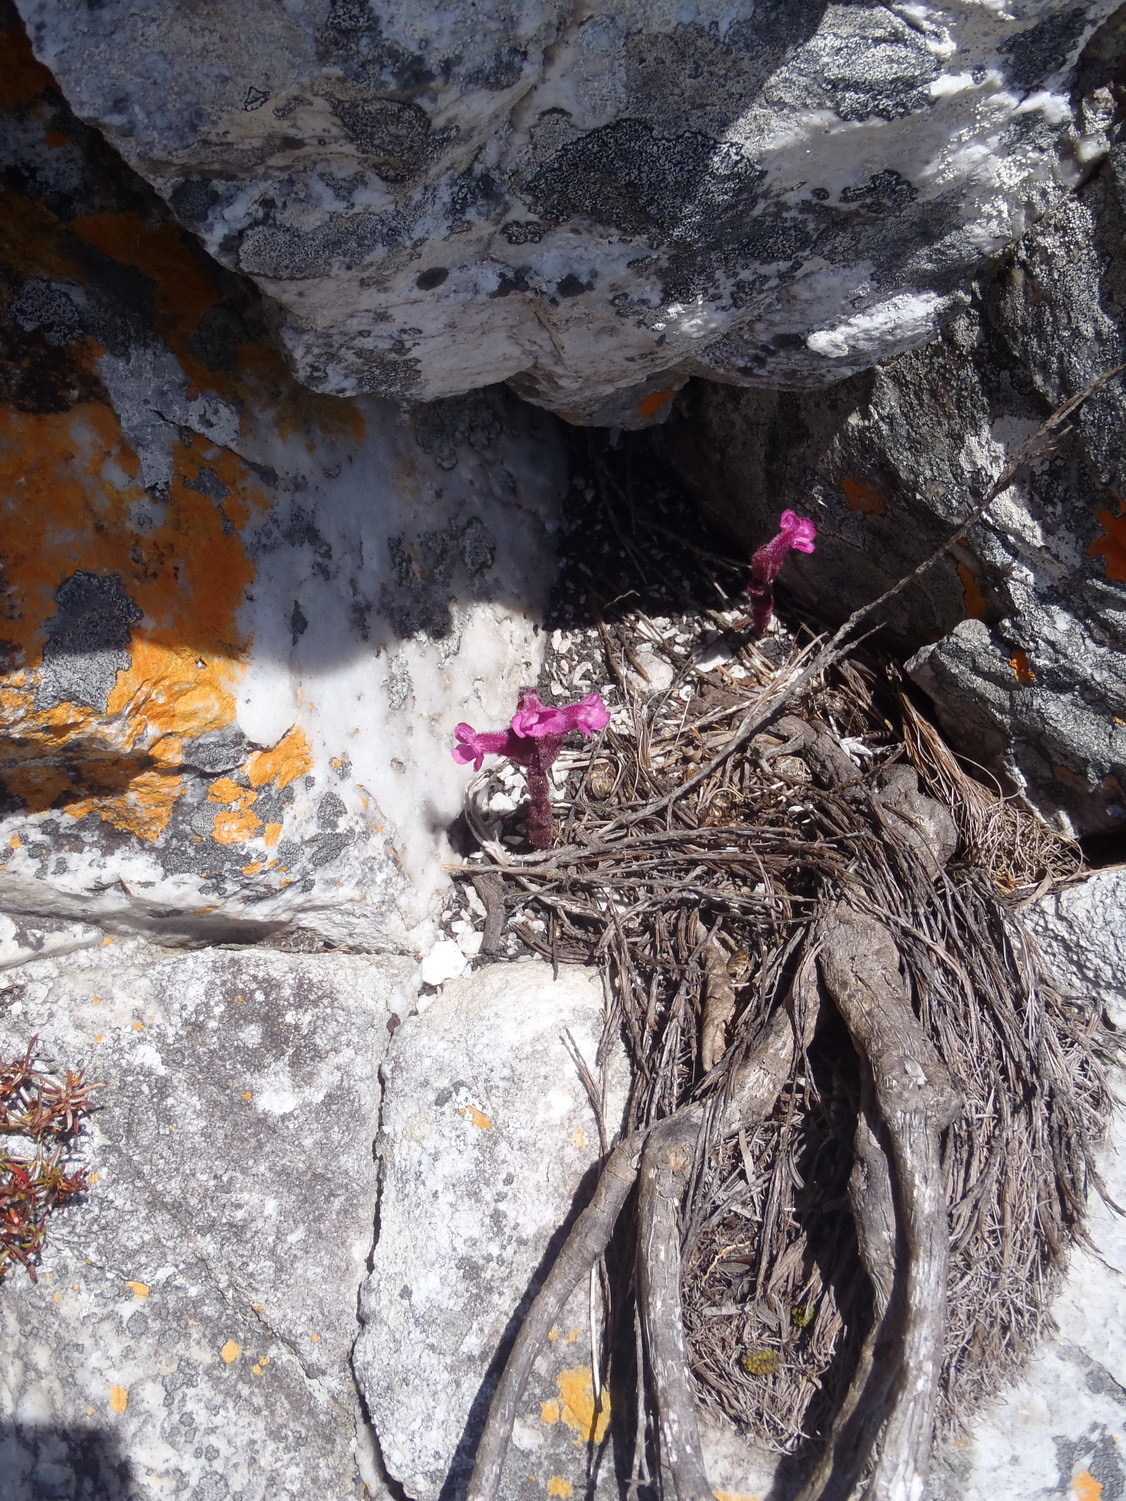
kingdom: Plantae
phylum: Tracheophyta
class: Magnoliopsida
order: Lamiales
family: Orobanchaceae
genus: Harveya
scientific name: Harveya pauciflora
